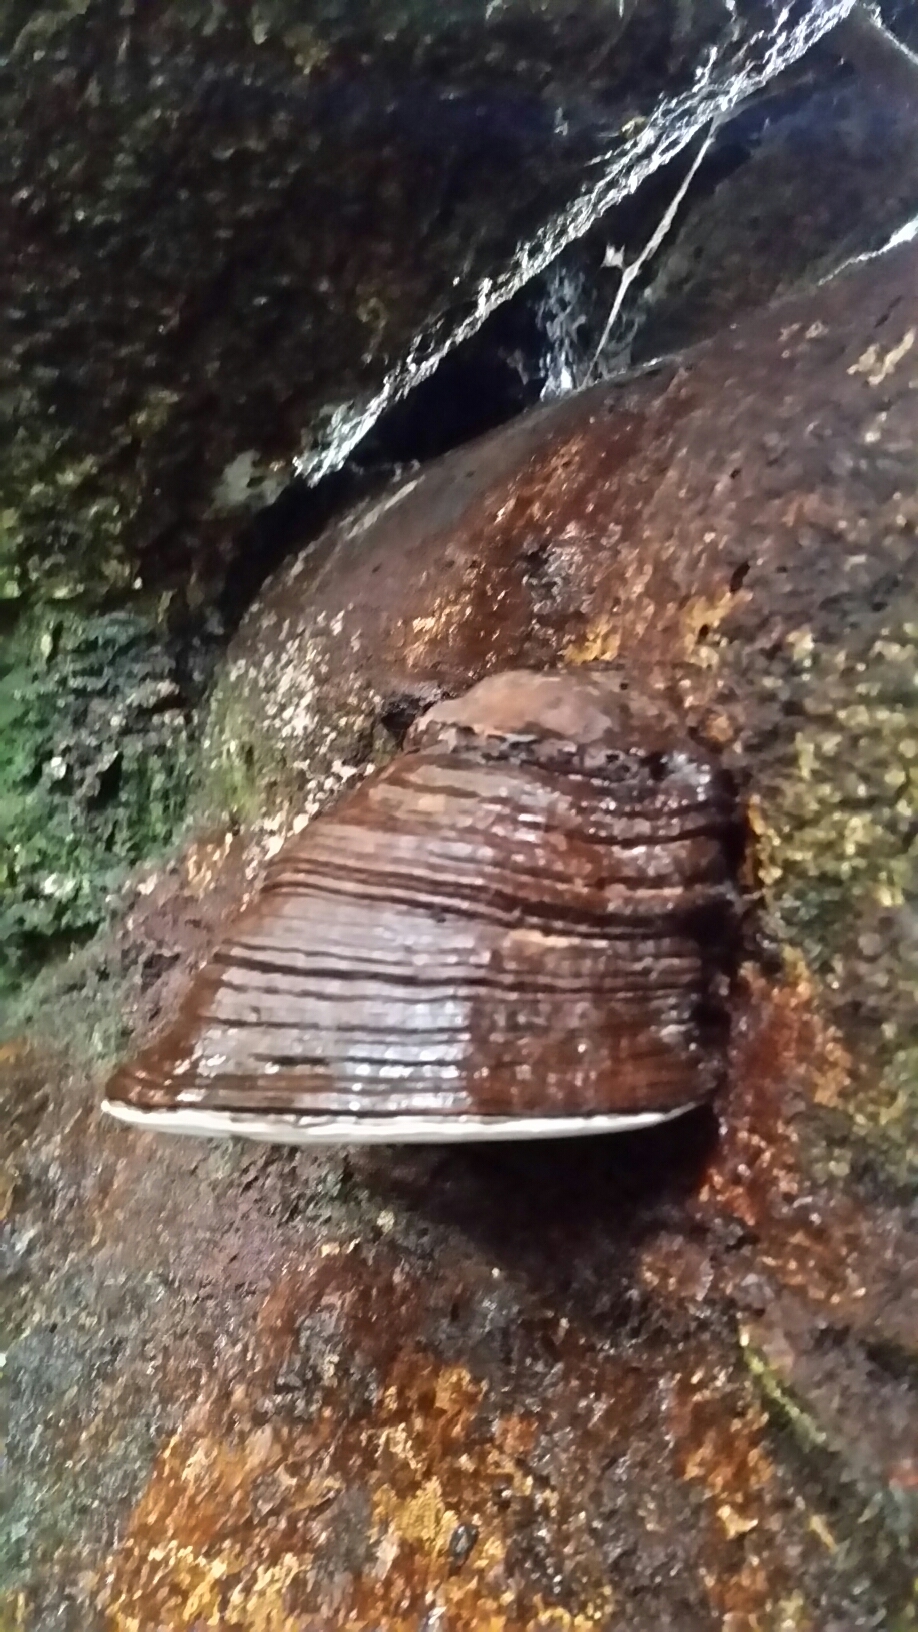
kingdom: Fungi
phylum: Basidiomycota
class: Agaricomycetes
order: Polyporales
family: Polyporaceae
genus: Ganoderma
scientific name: Ganoderma brownii
